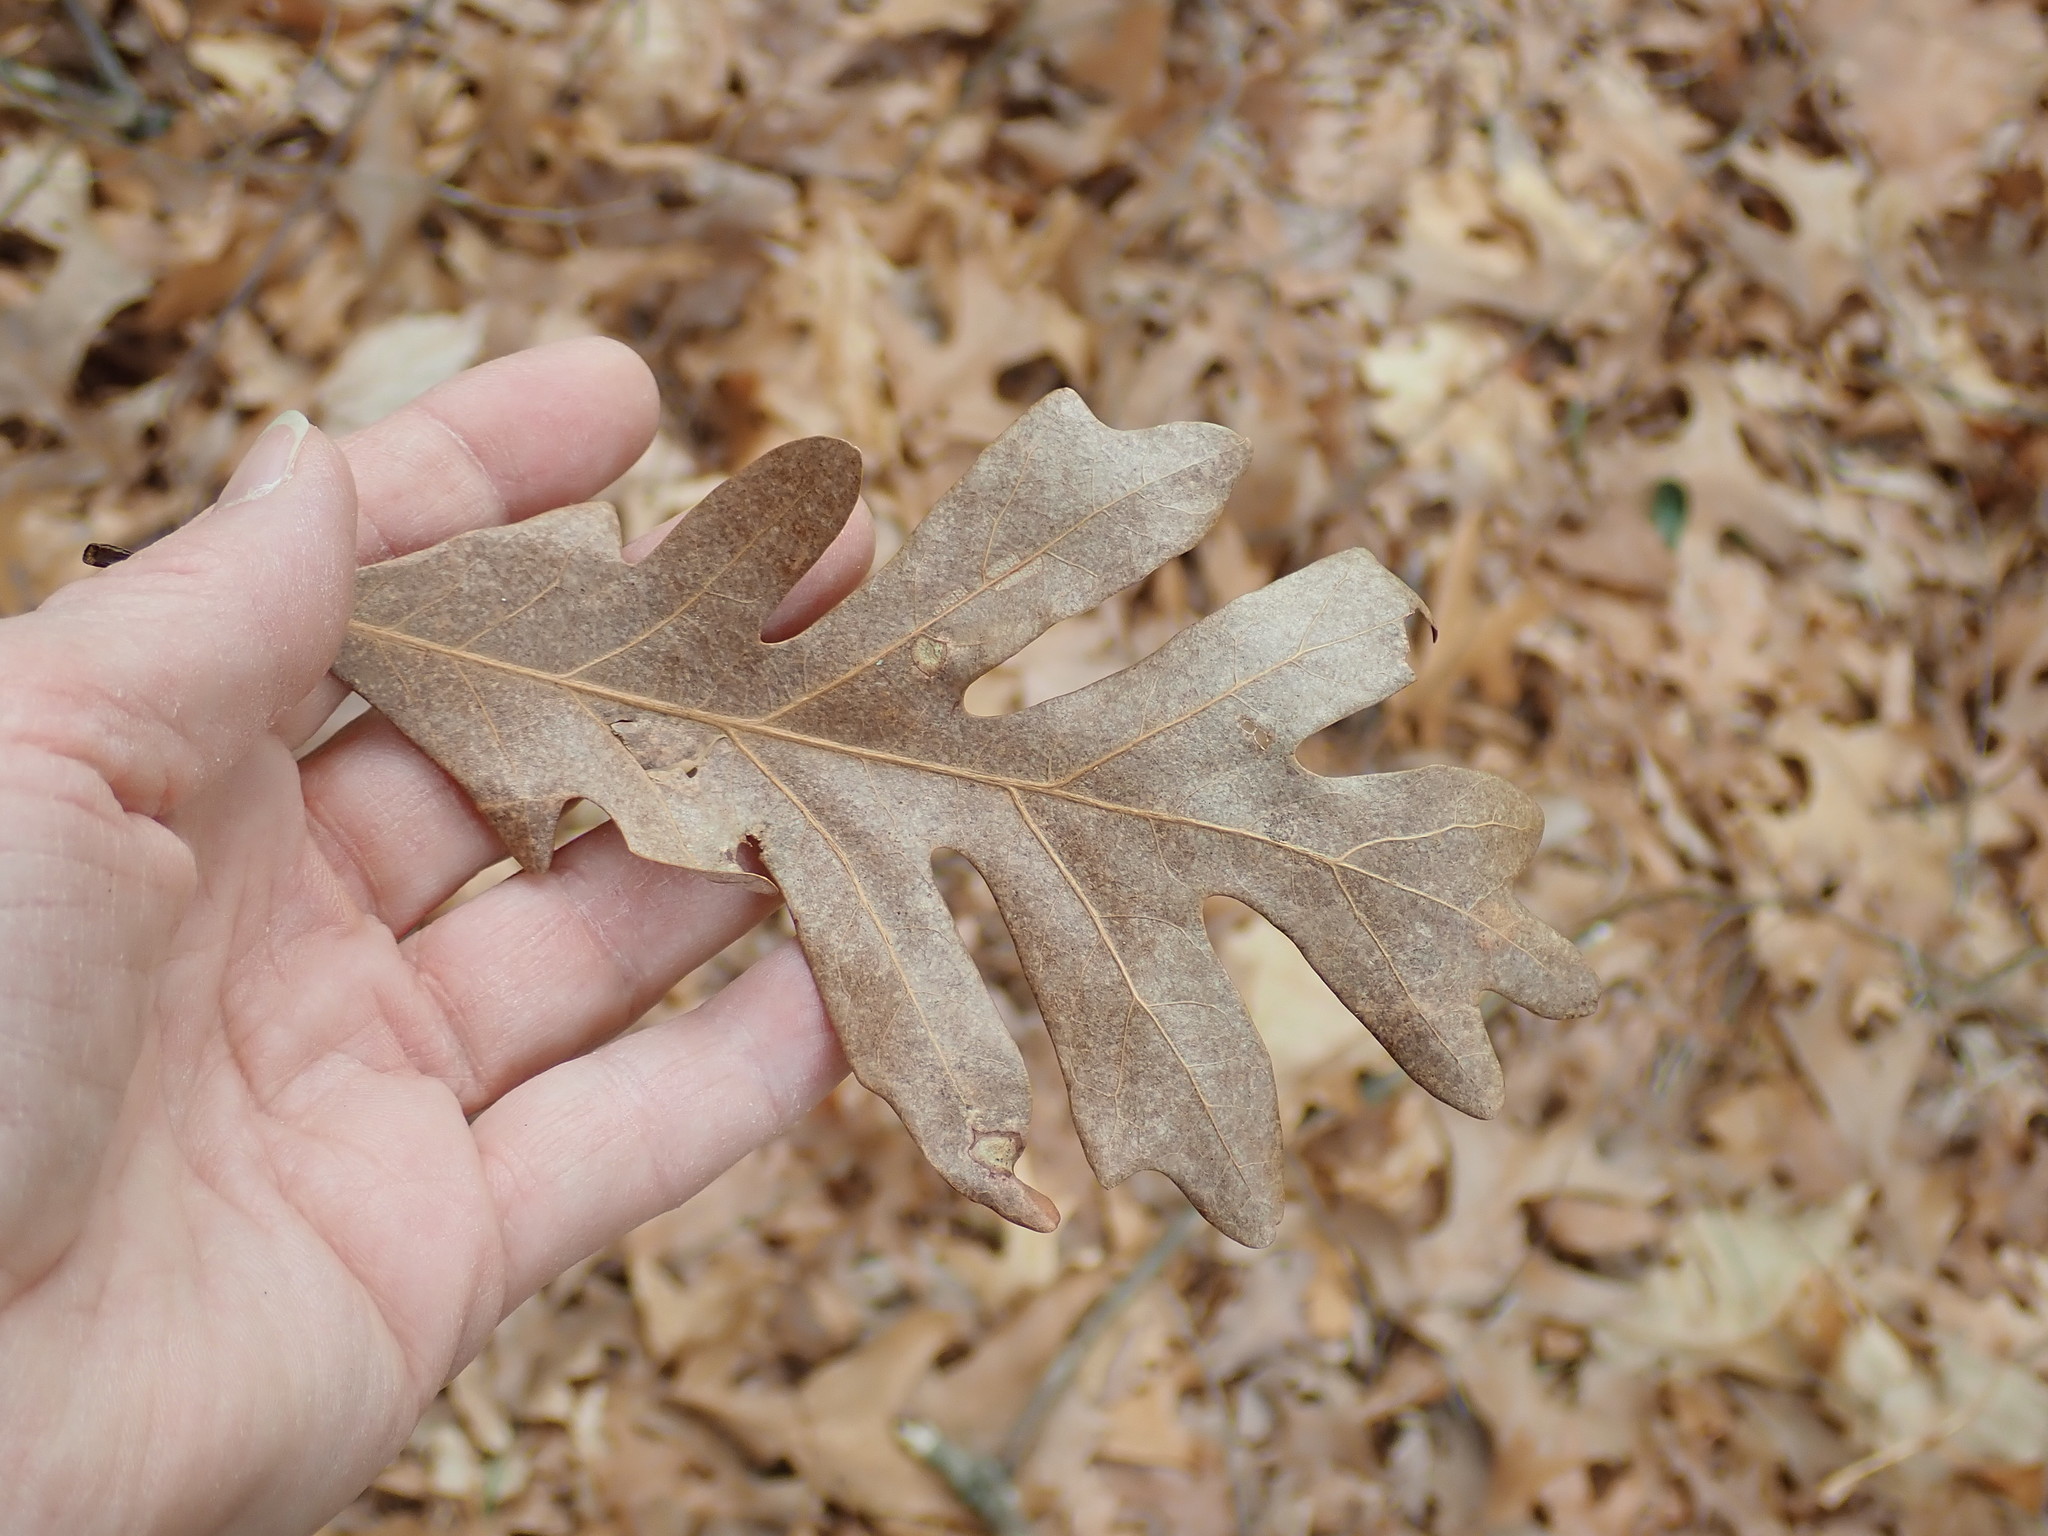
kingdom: Plantae
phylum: Tracheophyta
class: Magnoliopsida
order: Fagales
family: Fagaceae
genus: Quercus
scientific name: Quercus alba
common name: White oak
